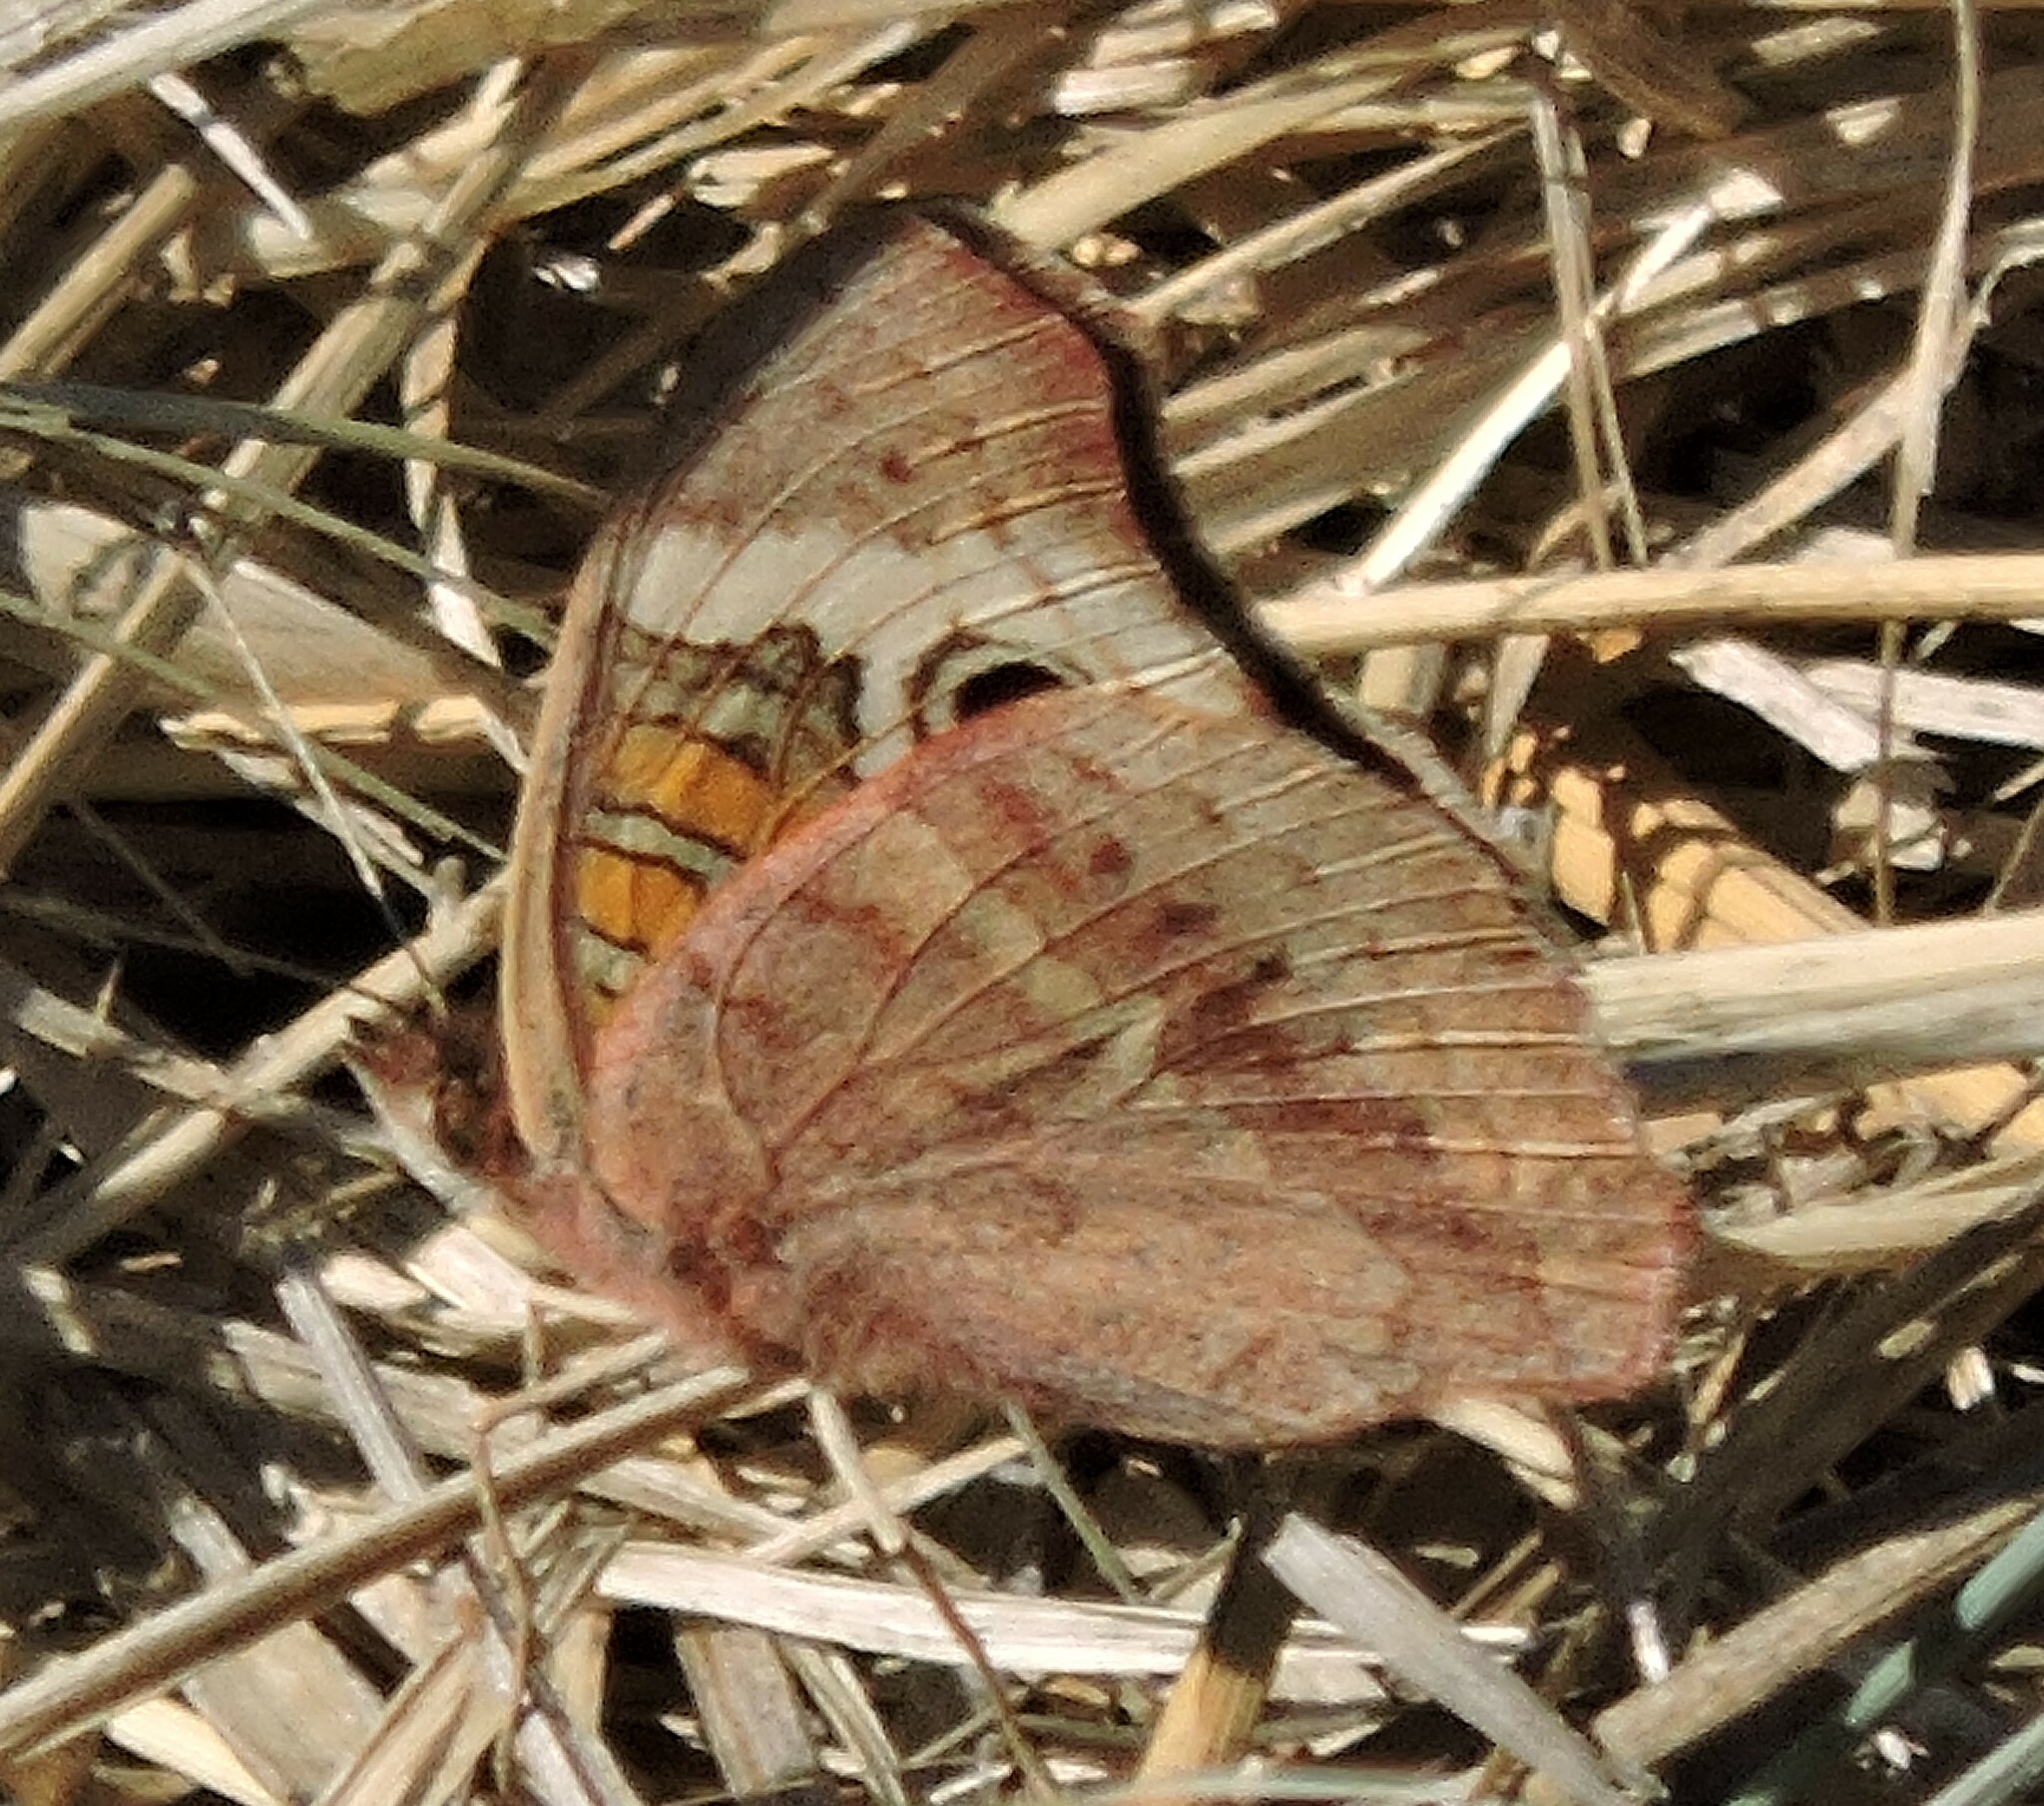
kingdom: Animalia
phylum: Arthropoda
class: Insecta
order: Lepidoptera
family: Nymphalidae
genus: Junonia
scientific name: Junonia grisea
